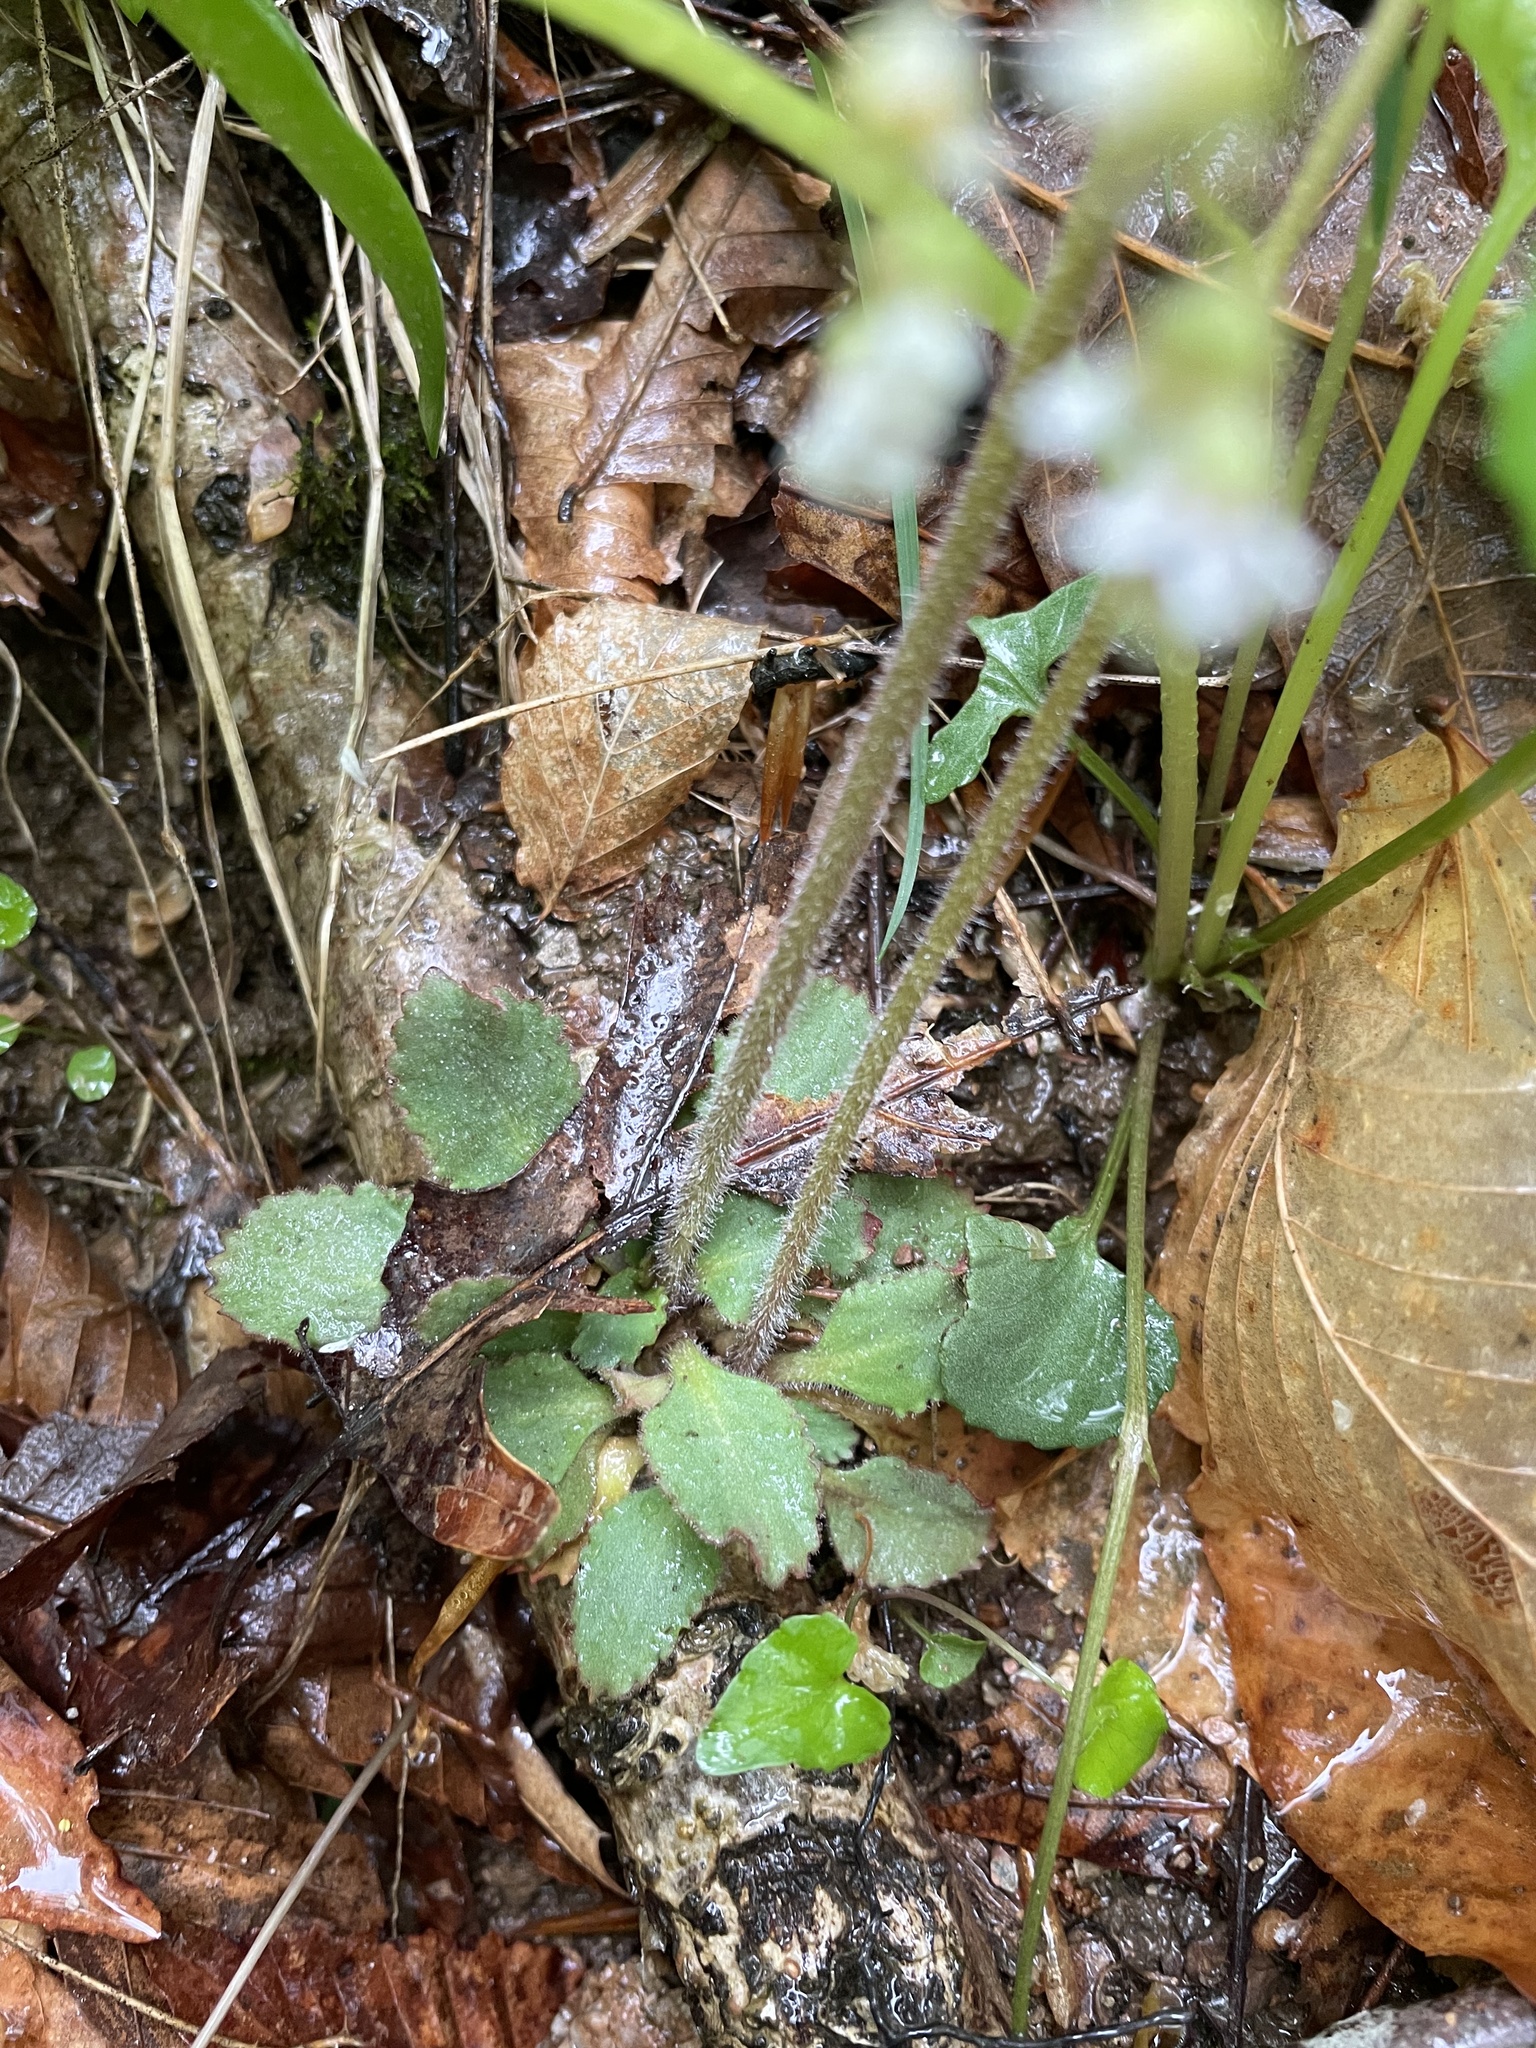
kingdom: Plantae
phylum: Tracheophyta
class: Magnoliopsida
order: Saxifragales
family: Saxifragaceae
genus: Micranthes
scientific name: Micranthes virginiensis
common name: Early saxifrage
